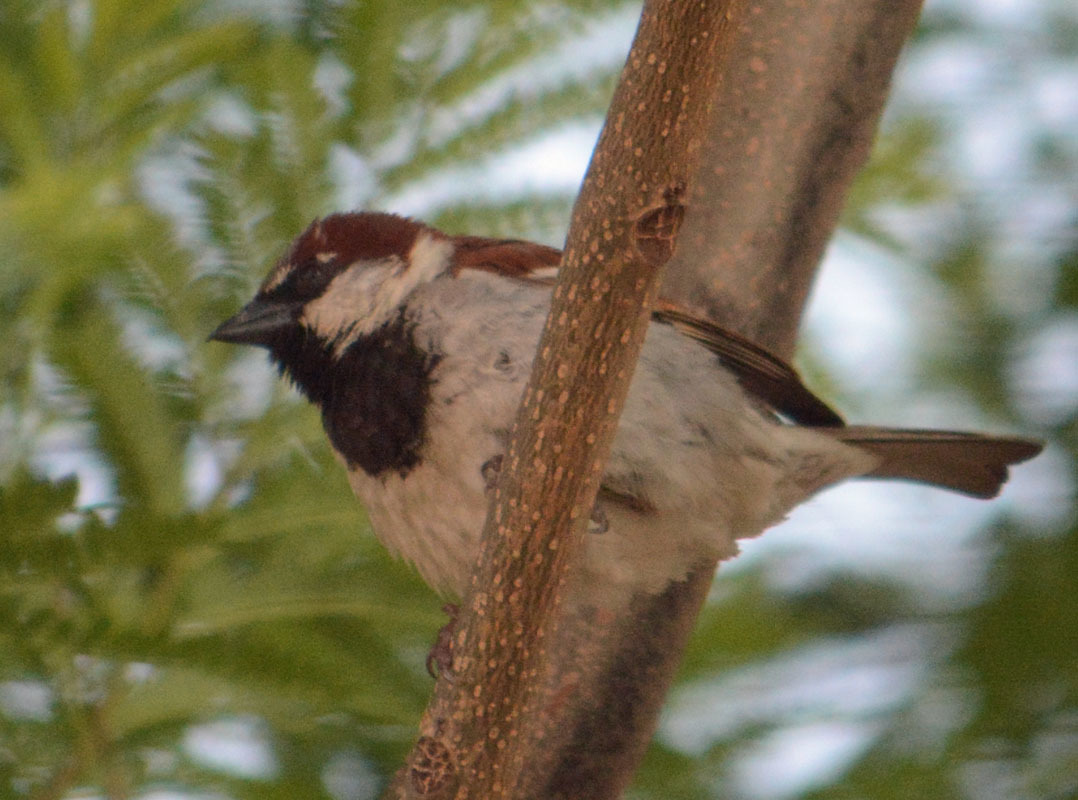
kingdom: Animalia
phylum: Chordata
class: Aves
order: Passeriformes
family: Passeridae
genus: Passer
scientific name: Passer domesticus
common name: House sparrow
